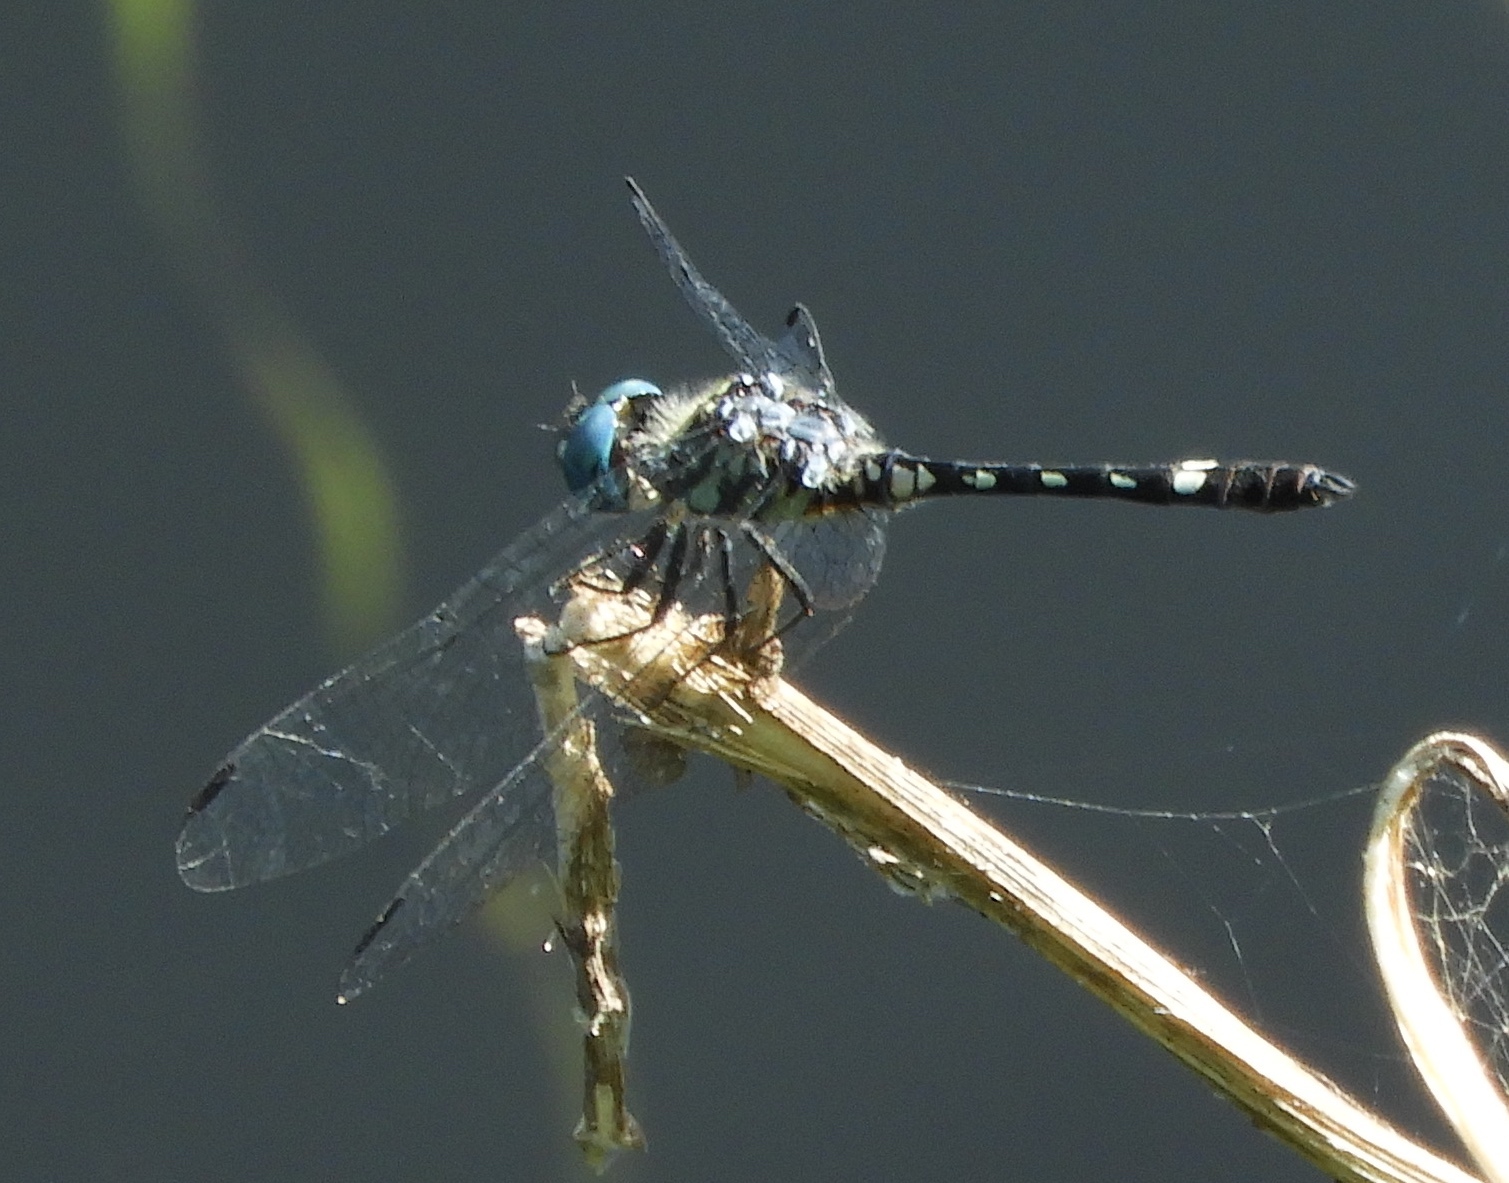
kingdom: Animalia
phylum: Arthropoda
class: Insecta
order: Odonata
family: Libellulidae
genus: Micrathyria
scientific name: Micrathyria hagenii
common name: Thornbush dasher
